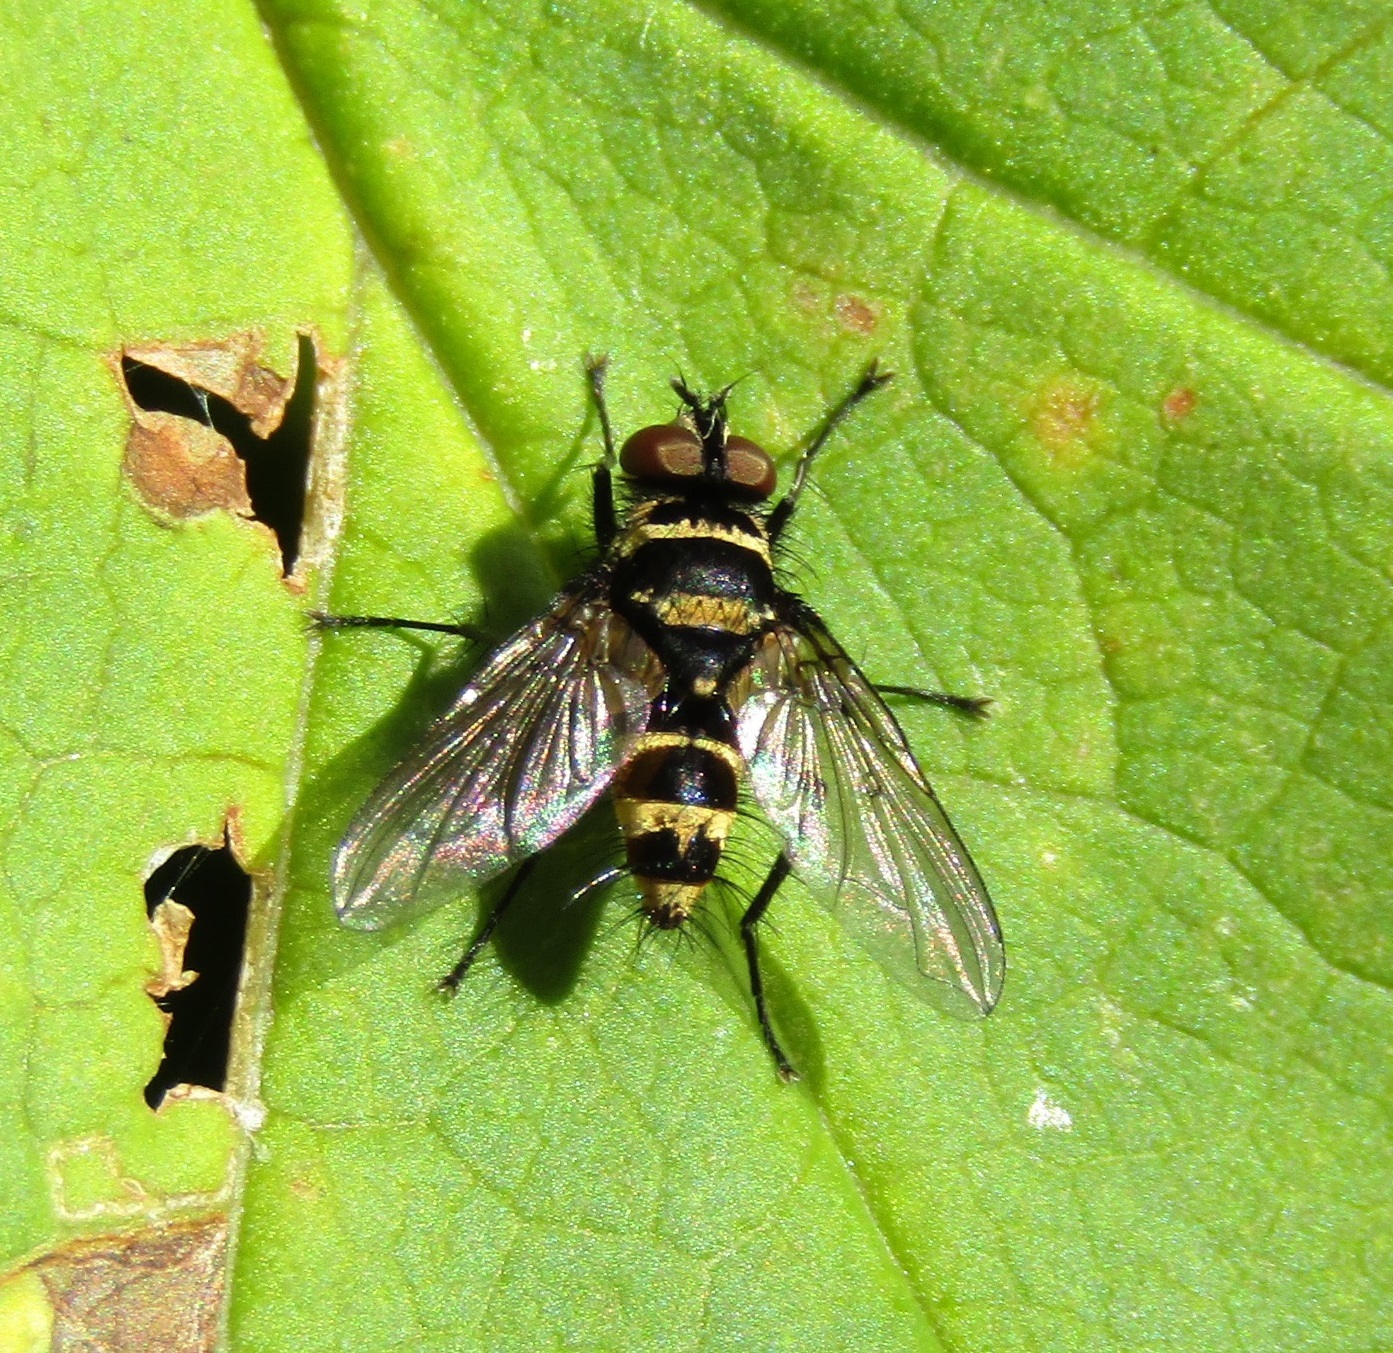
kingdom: Animalia
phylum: Arthropoda
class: Insecta
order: Diptera
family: Tachinidae
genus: Trigonospila
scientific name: Trigonospila brevifacies
